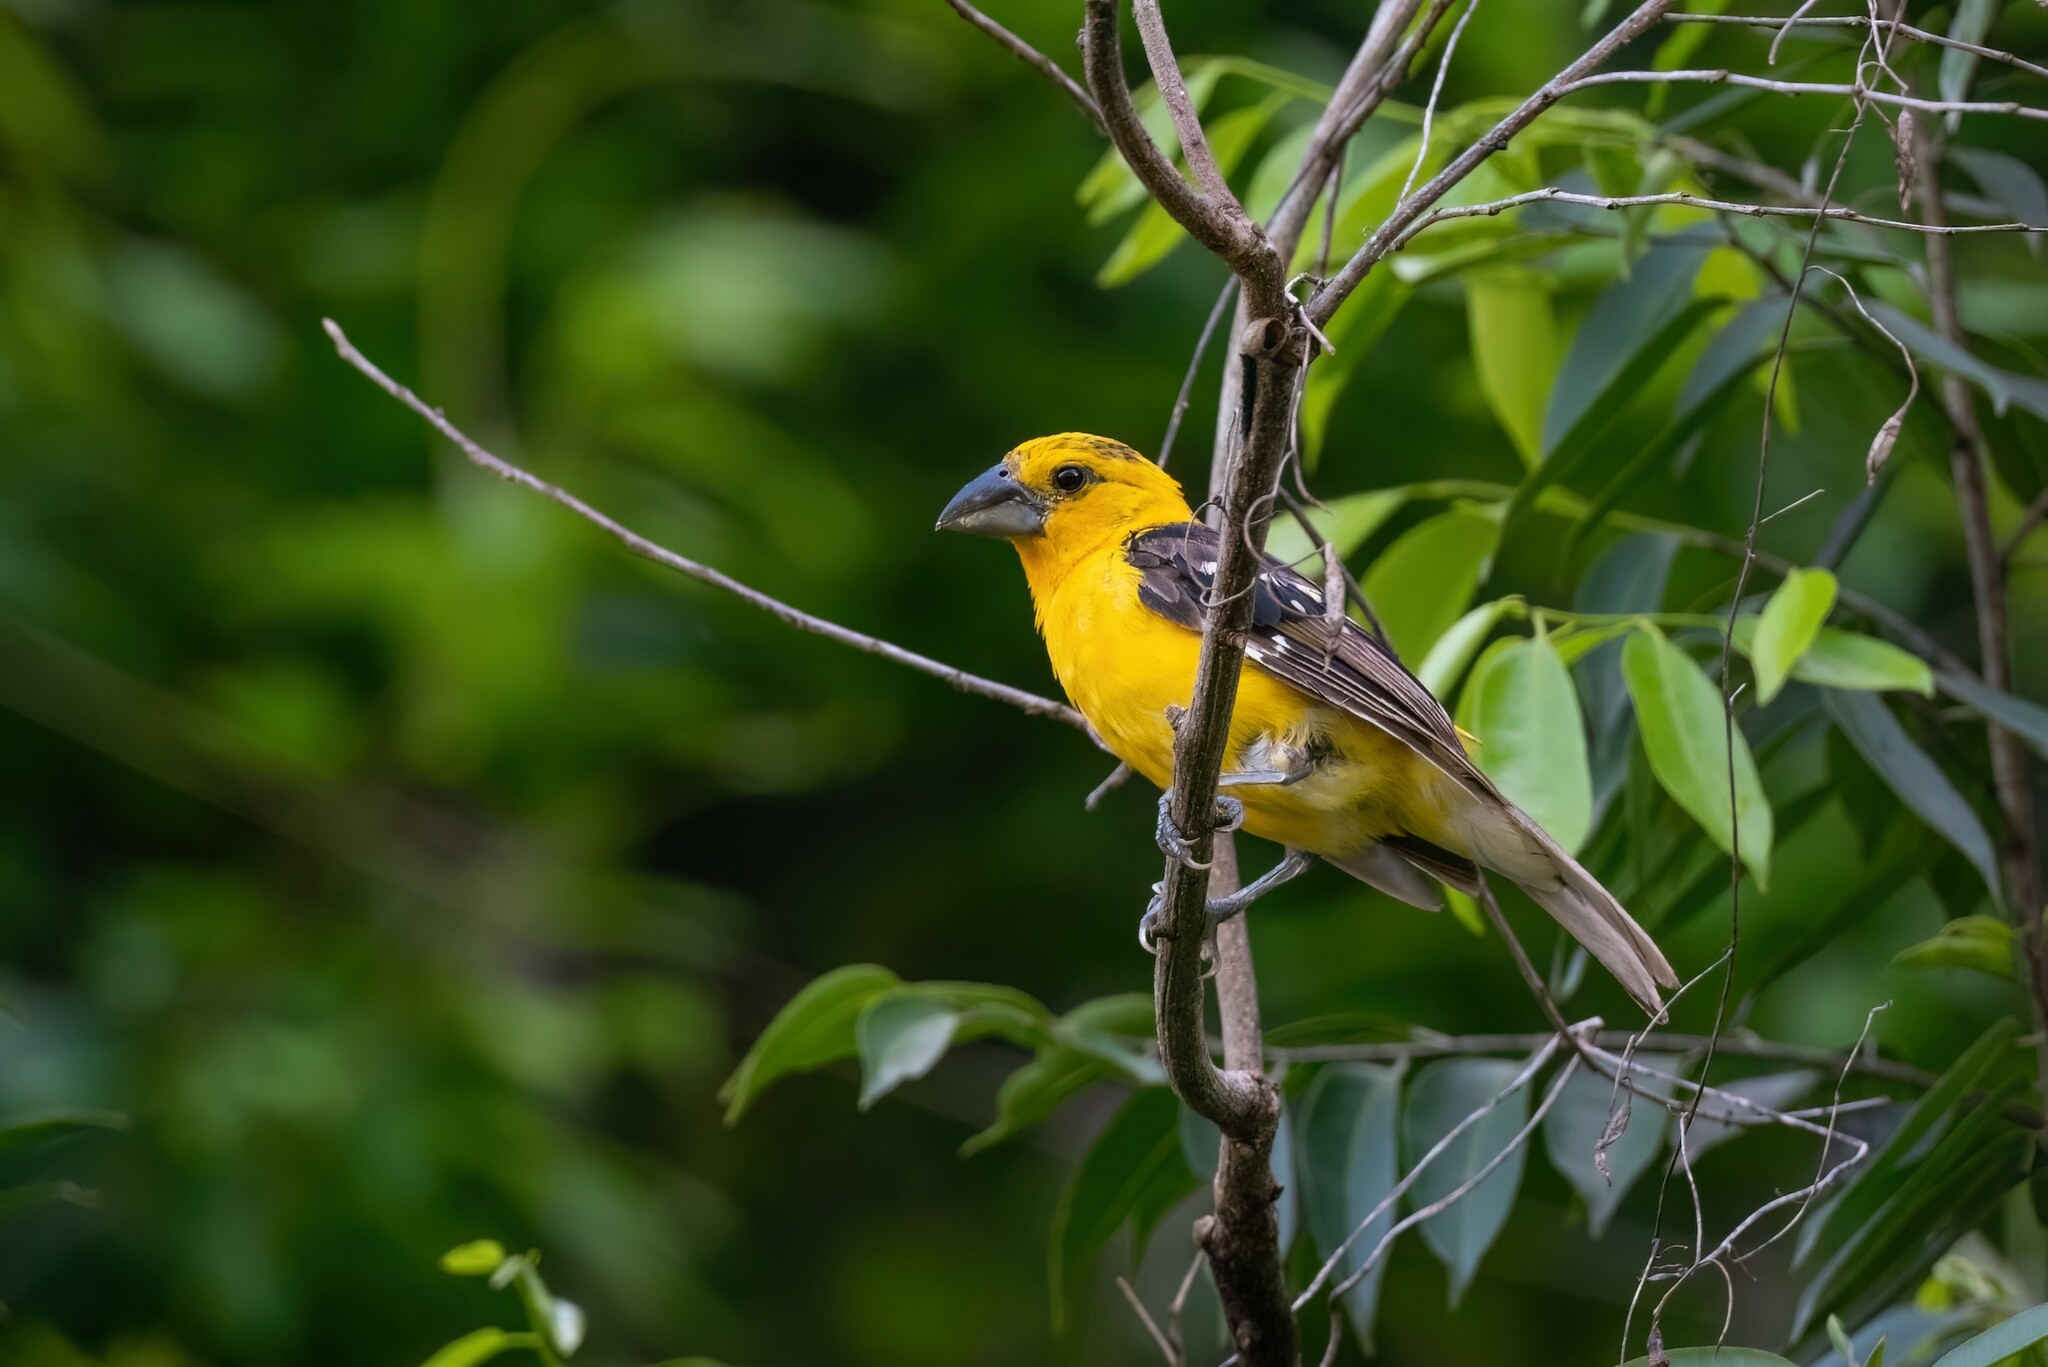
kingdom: Animalia
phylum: Chordata
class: Aves
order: Passeriformes
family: Cardinalidae
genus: Pheucticus
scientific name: Pheucticus chrysopeplus
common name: Yellow grosbeak
